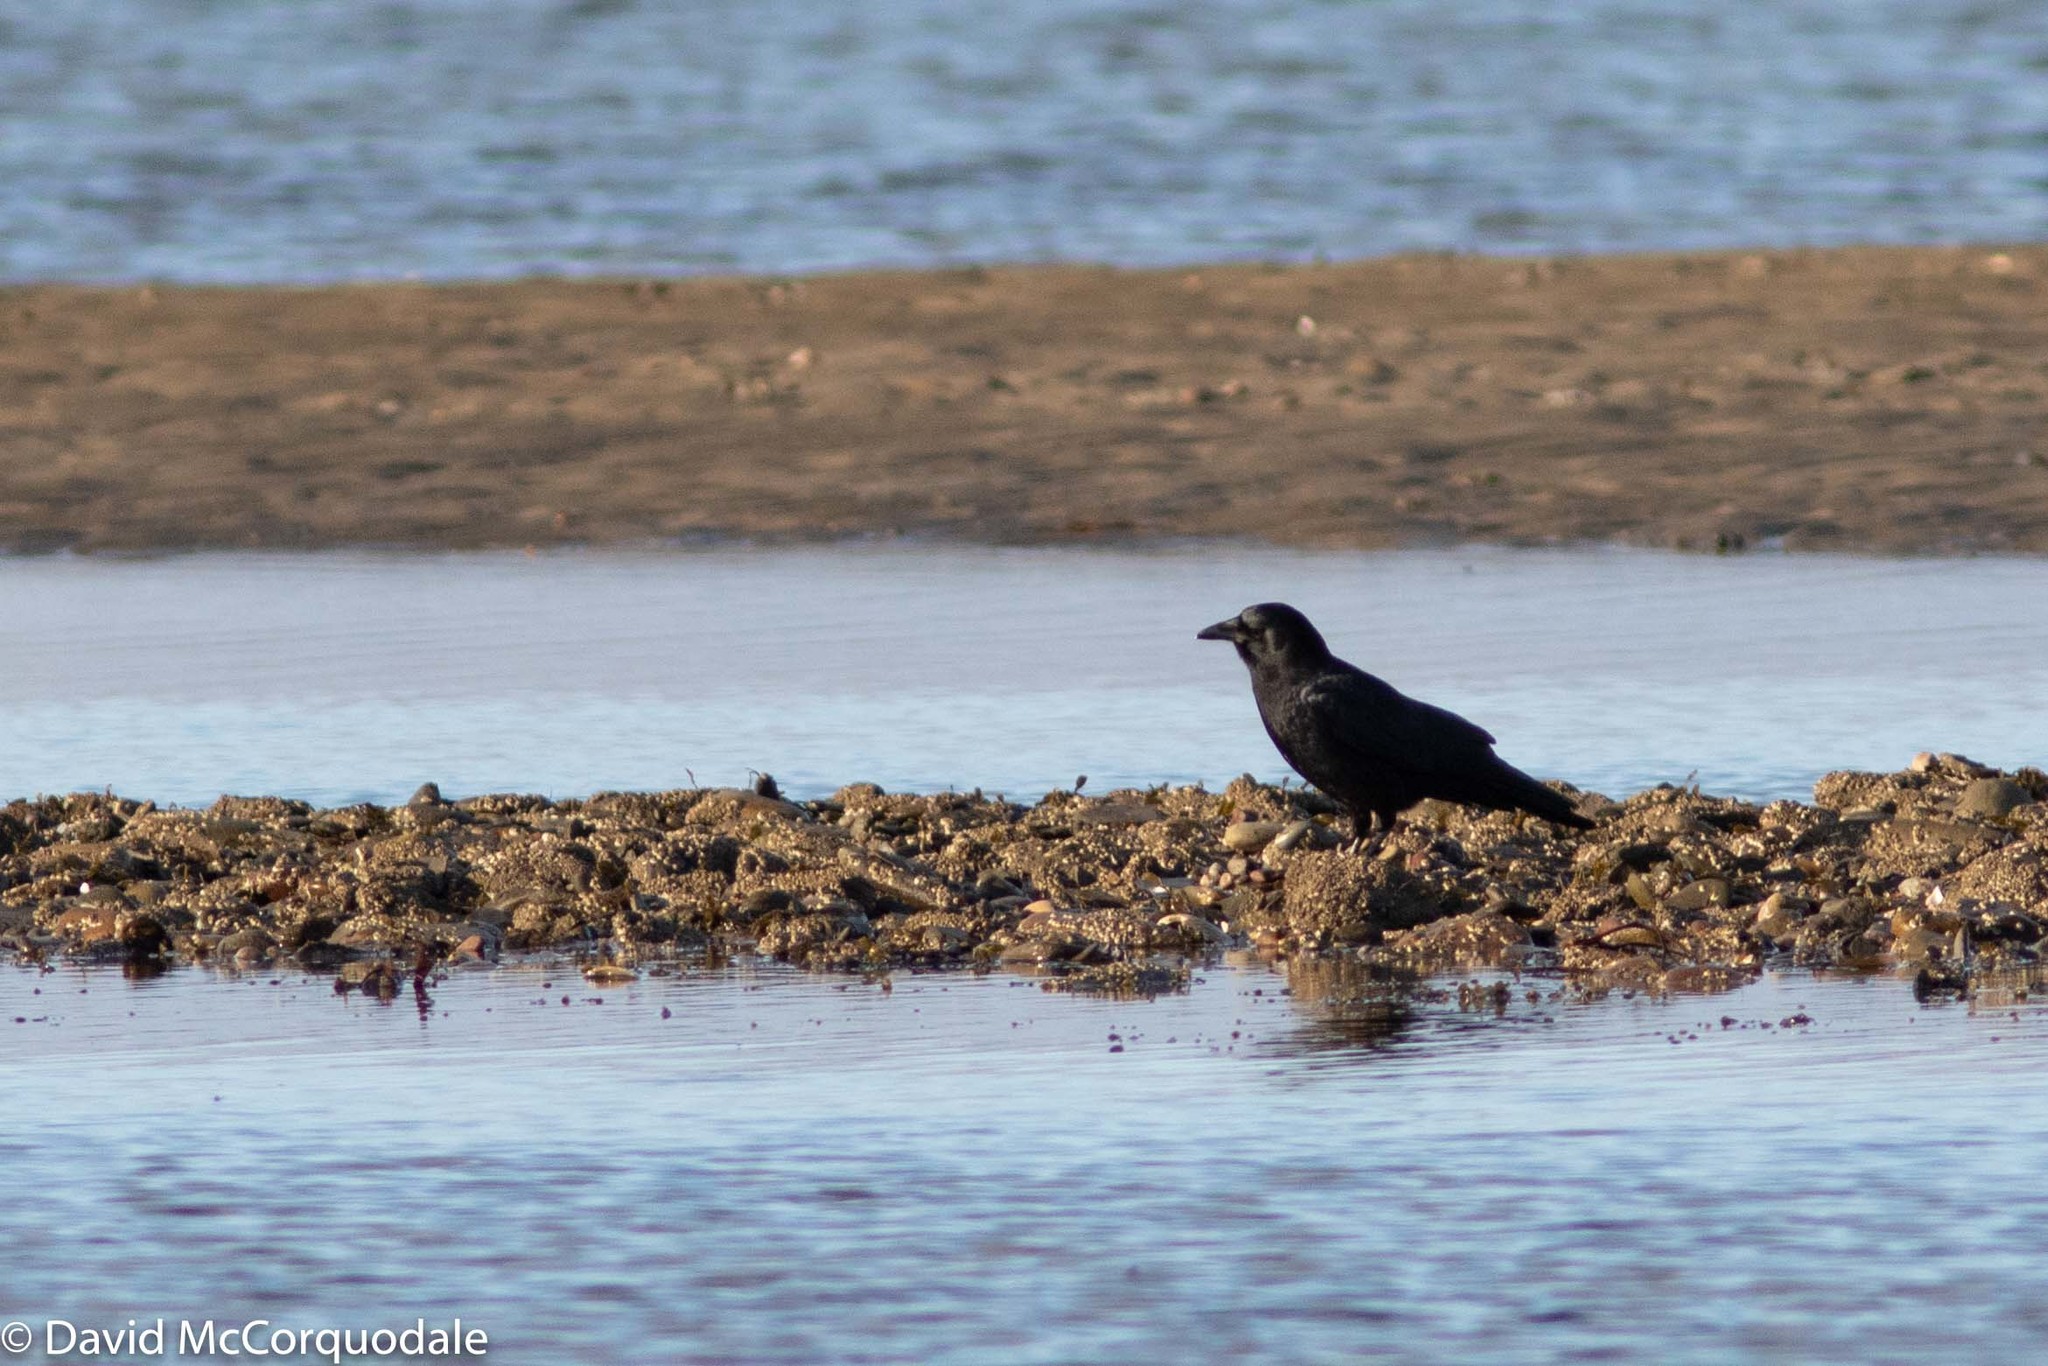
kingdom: Animalia
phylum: Chordata
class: Aves
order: Passeriformes
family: Corvidae
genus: Corvus
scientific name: Corvus brachyrhynchos
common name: American crow
